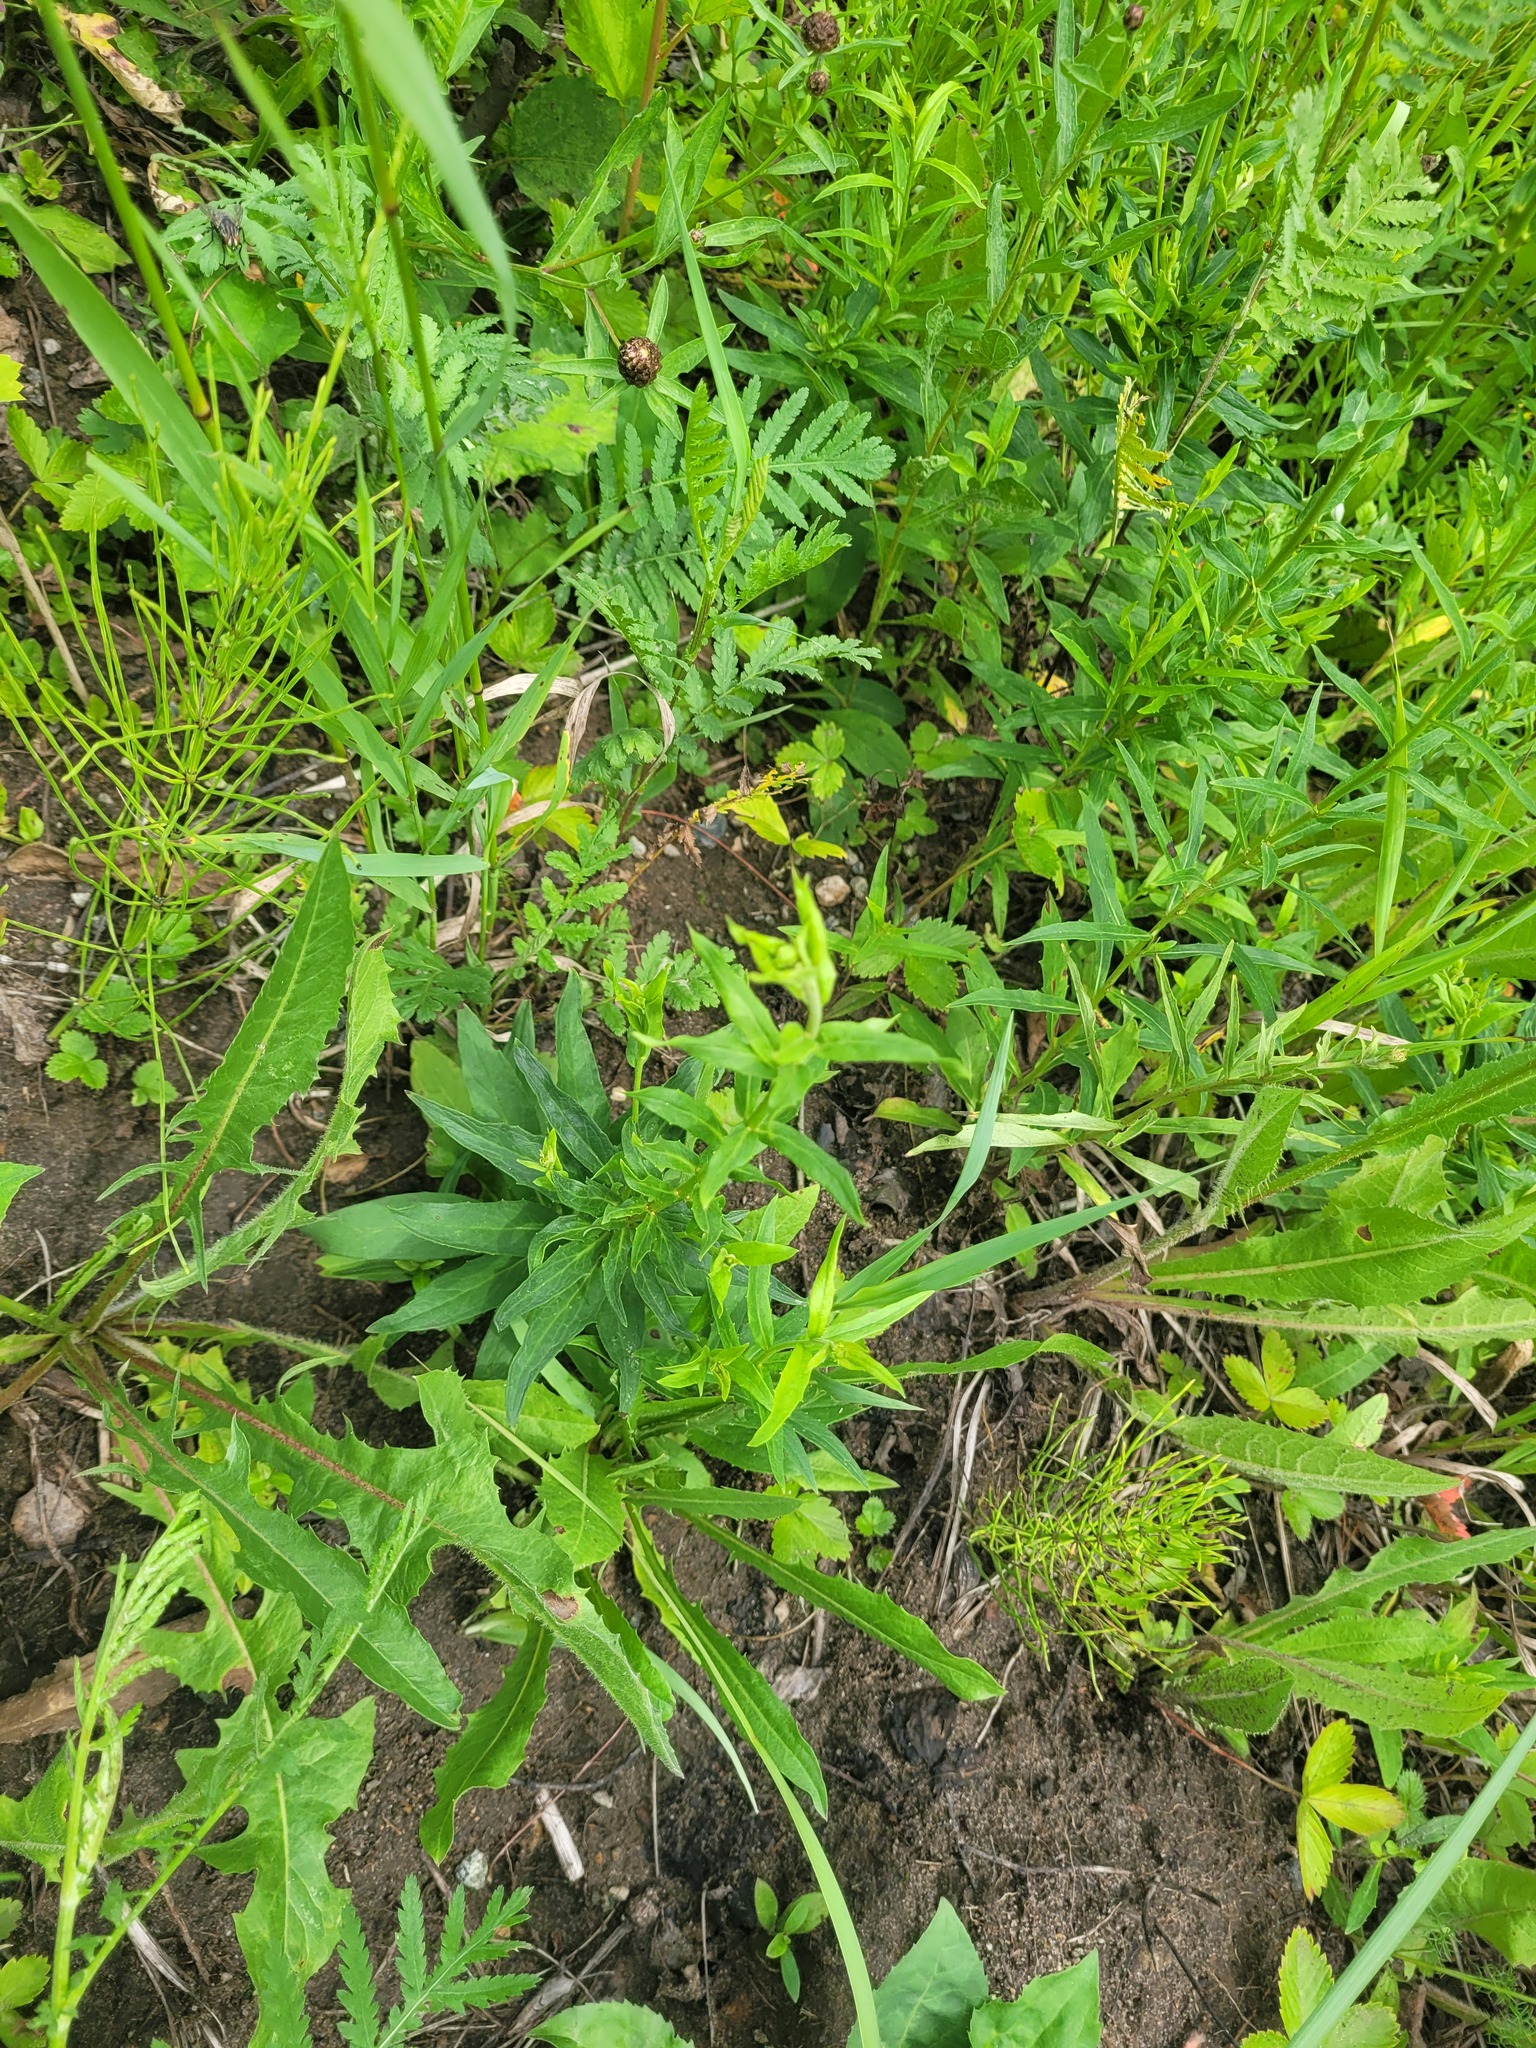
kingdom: Plantae
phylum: Tracheophyta
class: Magnoliopsida
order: Asterales
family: Asteraceae
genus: Hieracium
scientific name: Hieracium umbellatum
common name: Northern hawkweed
